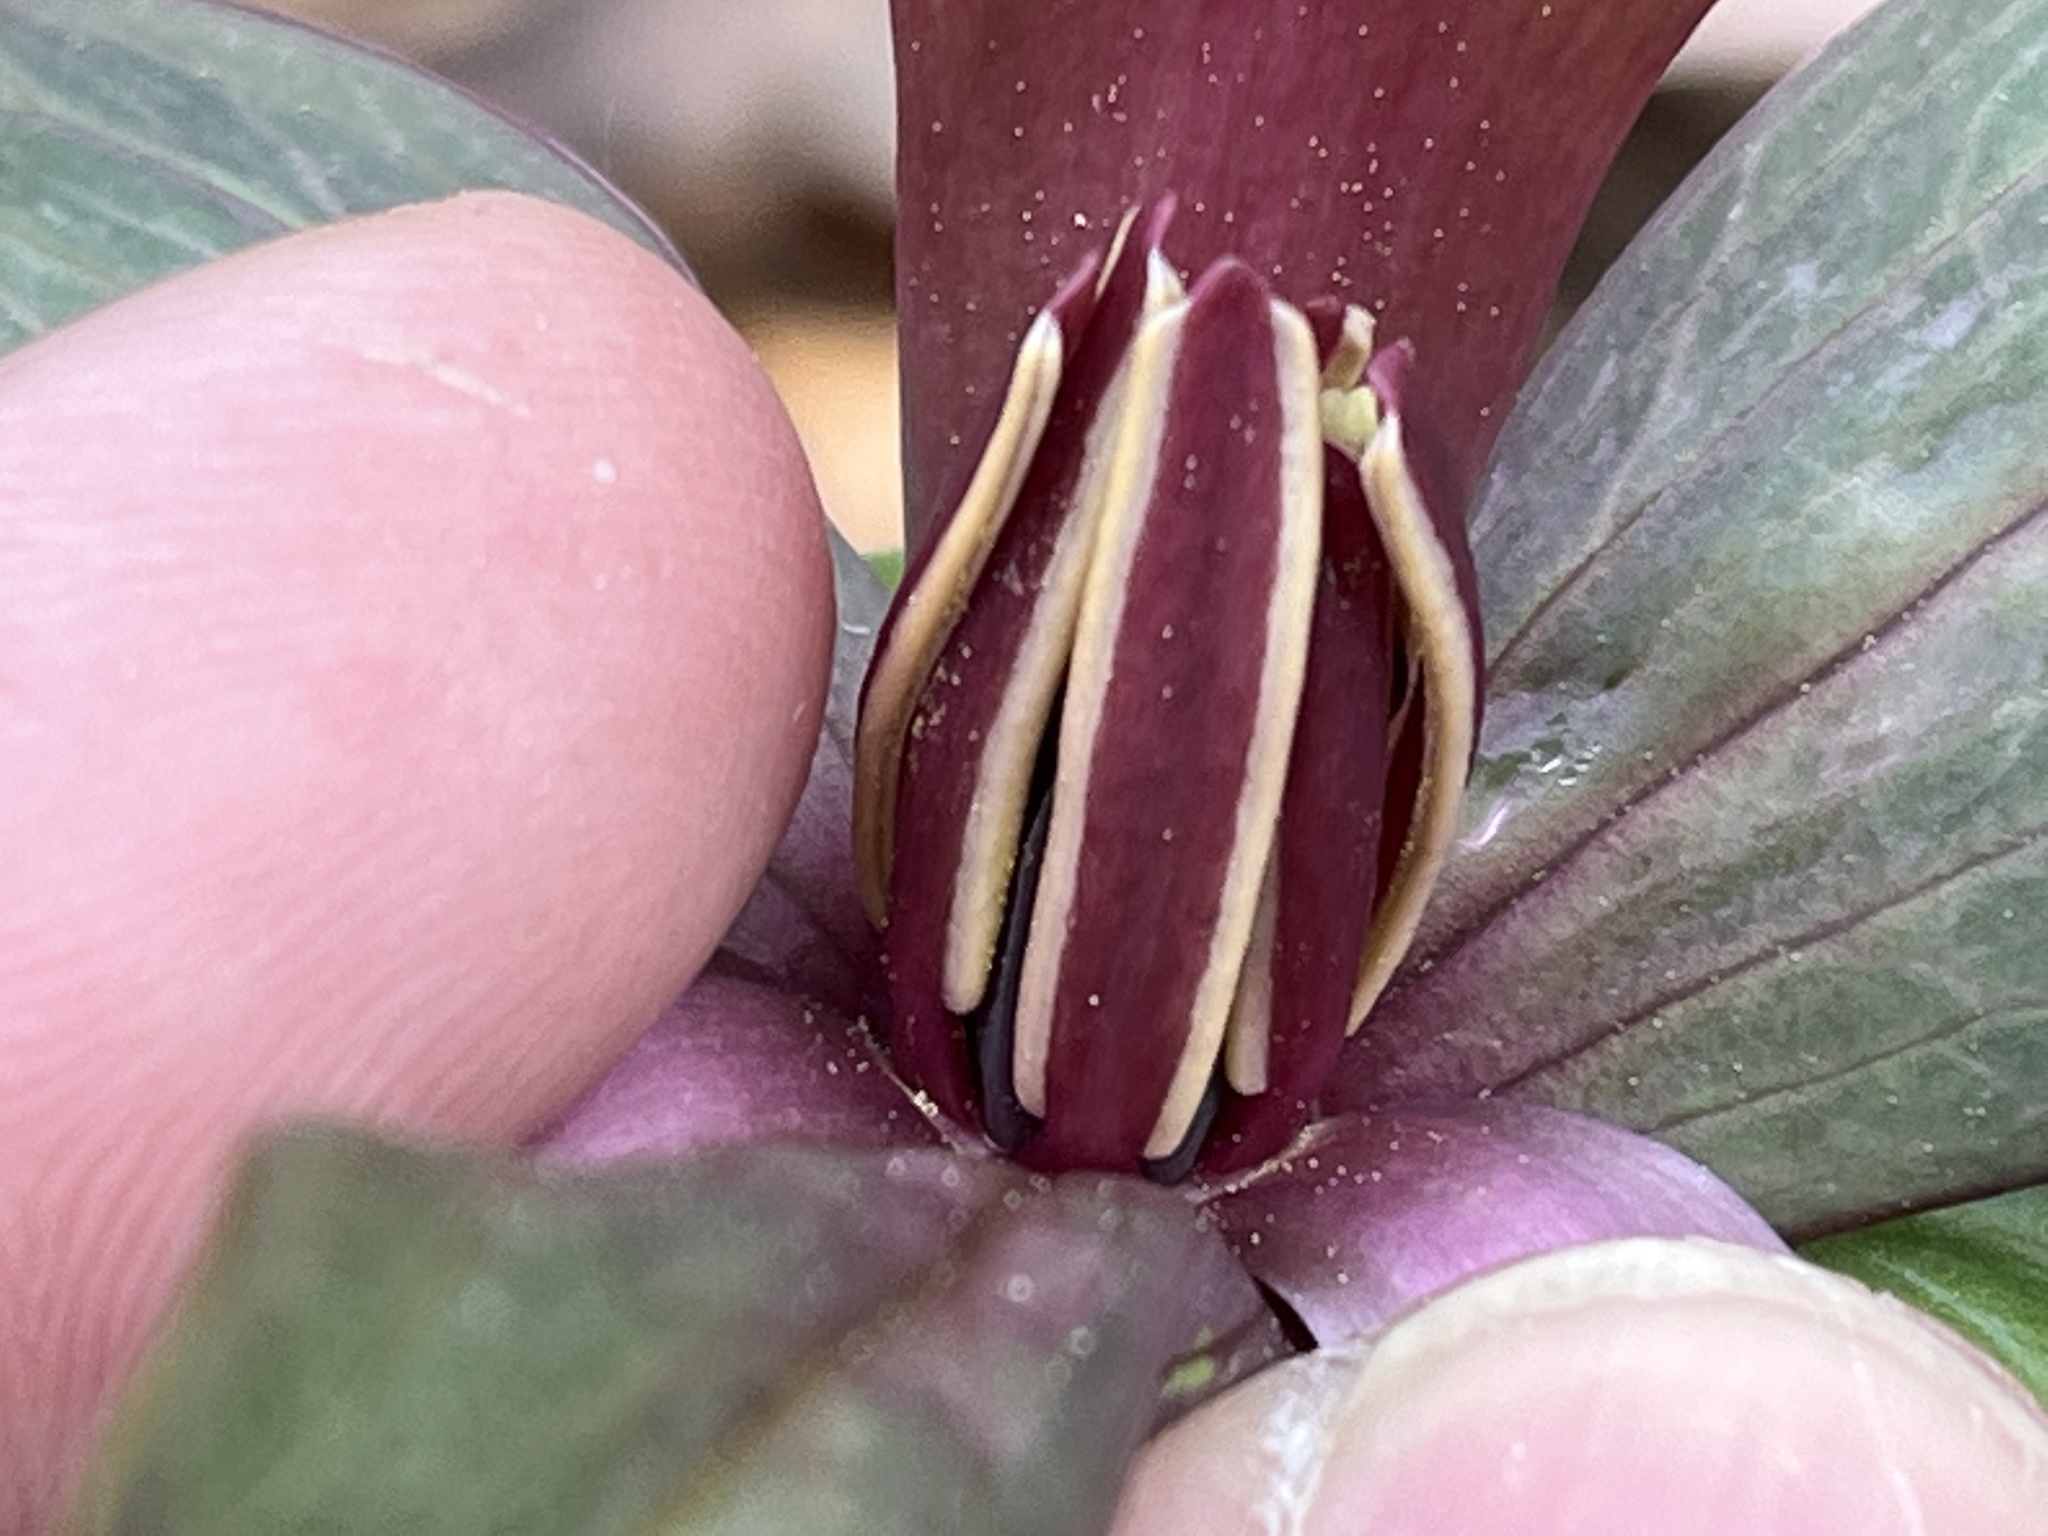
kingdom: Plantae
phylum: Tracheophyta
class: Liliopsida
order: Liliales
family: Melanthiaceae
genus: Trillium
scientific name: Trillium cuneatum
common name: Cuneate trillium
